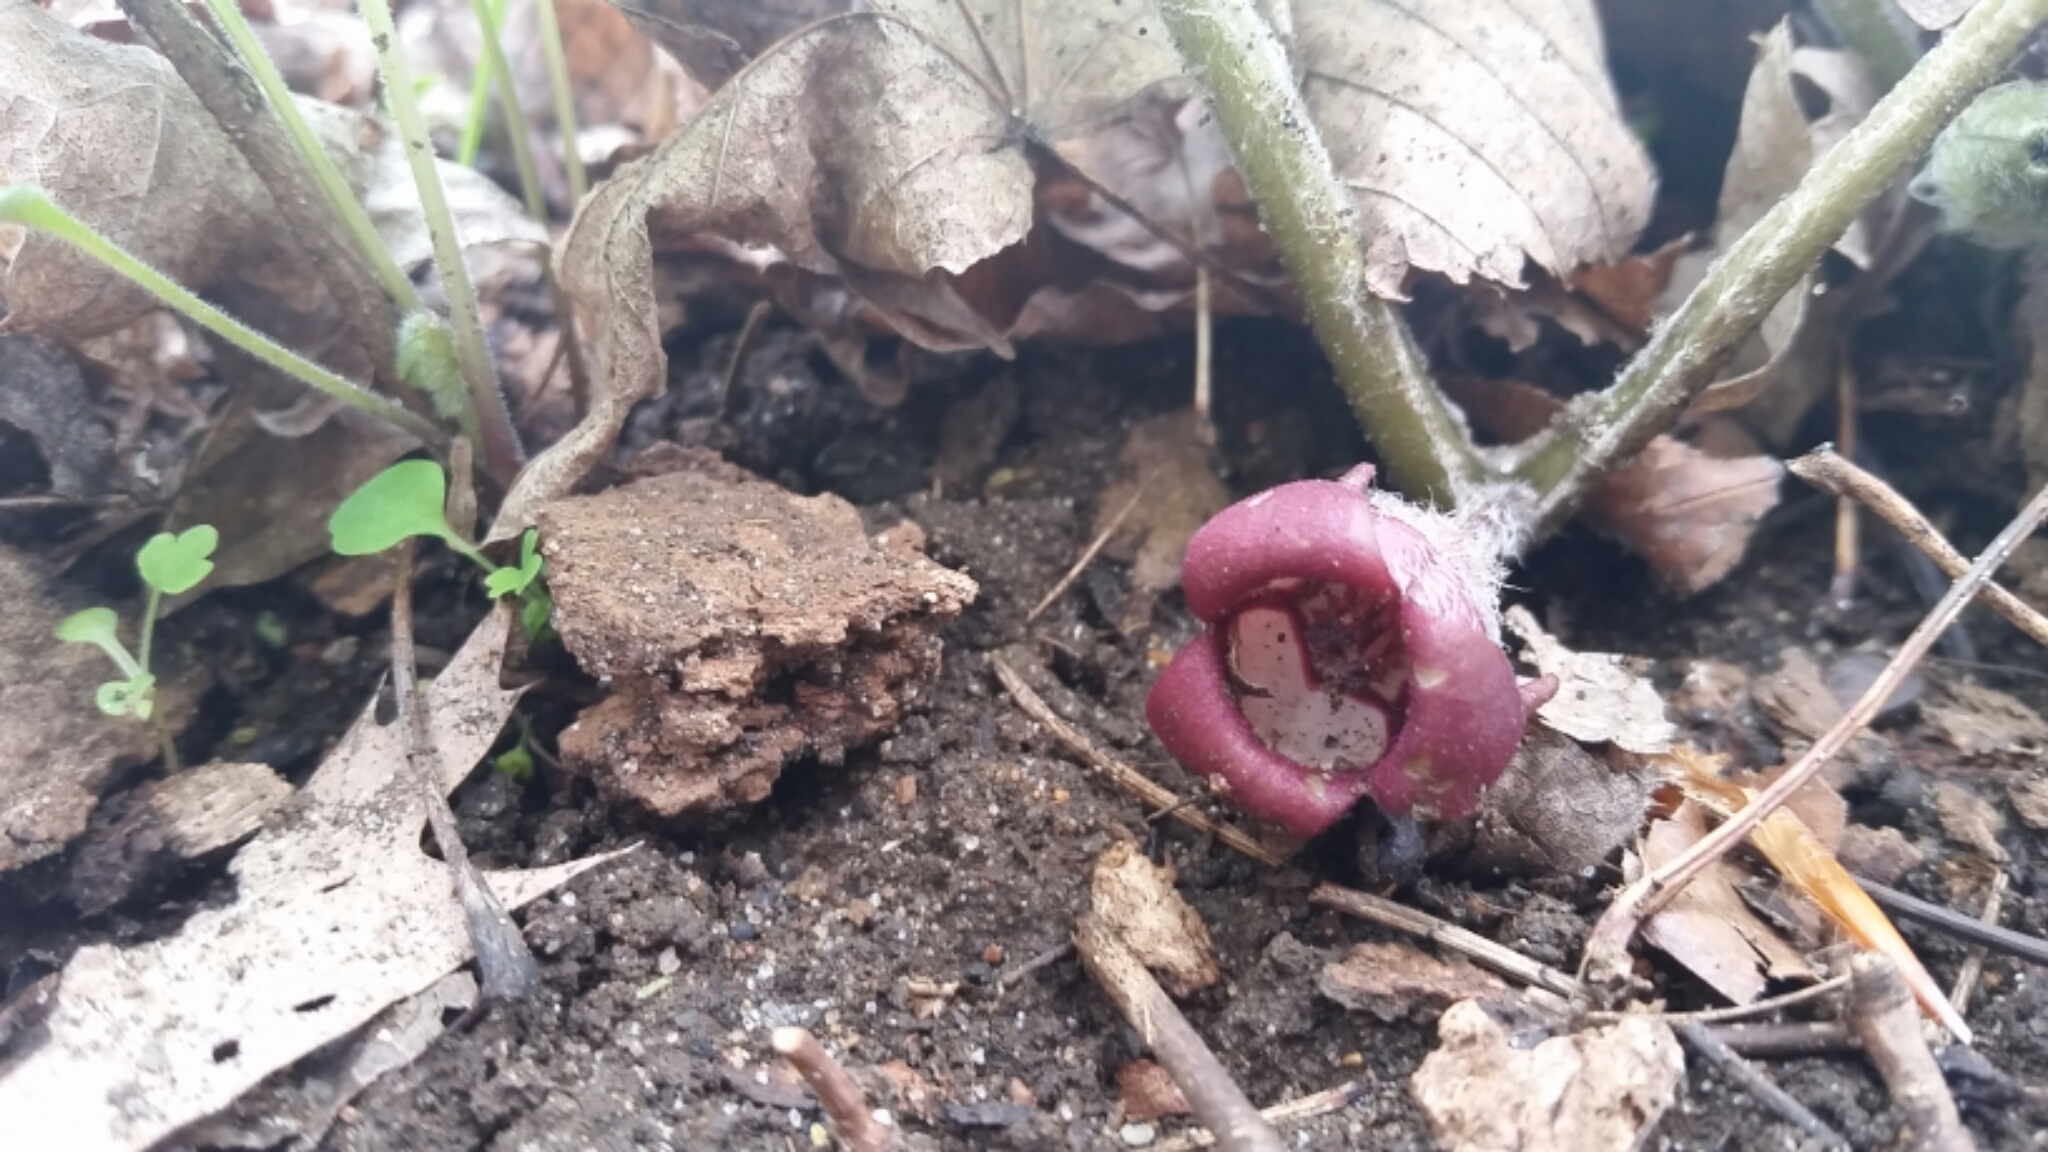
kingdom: Plantae
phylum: Tracheophyta
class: Magnoliopsida
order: Piperales
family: Aristolochiaceae
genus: Asarum
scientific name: Asarum canadense
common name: Wild ginger
